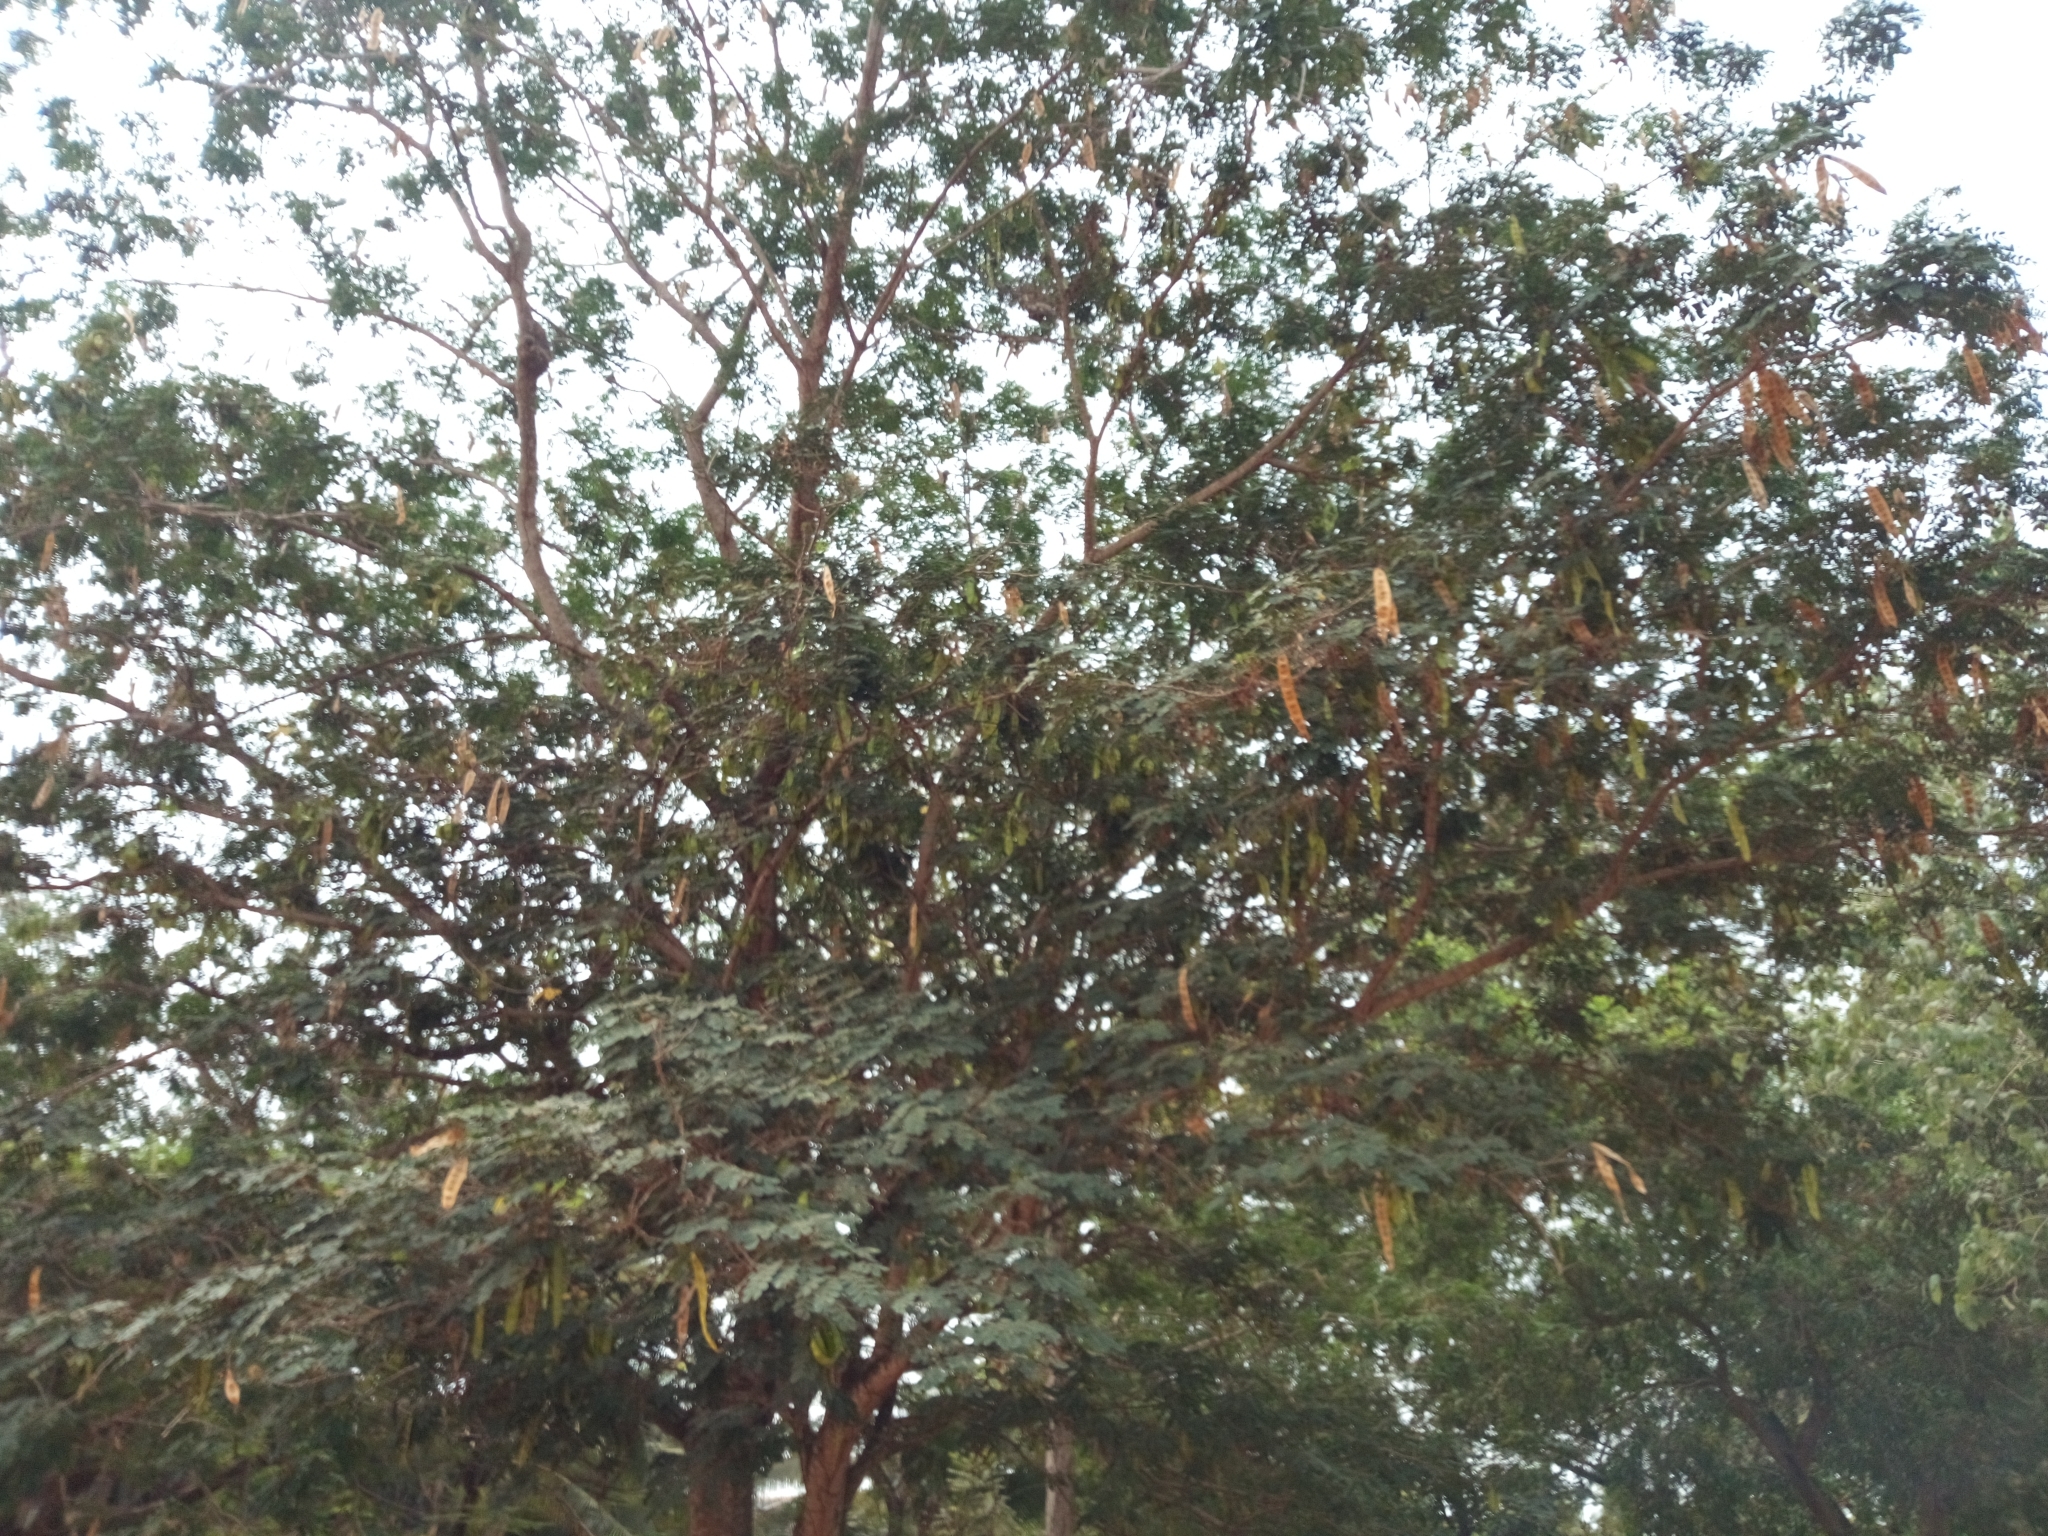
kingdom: Plantae
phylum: Tracheophyta
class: Magnoliopsida
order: Fabales
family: Fabaceae
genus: Albizia
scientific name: Albizia lebbeck
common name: Woman's tongue
